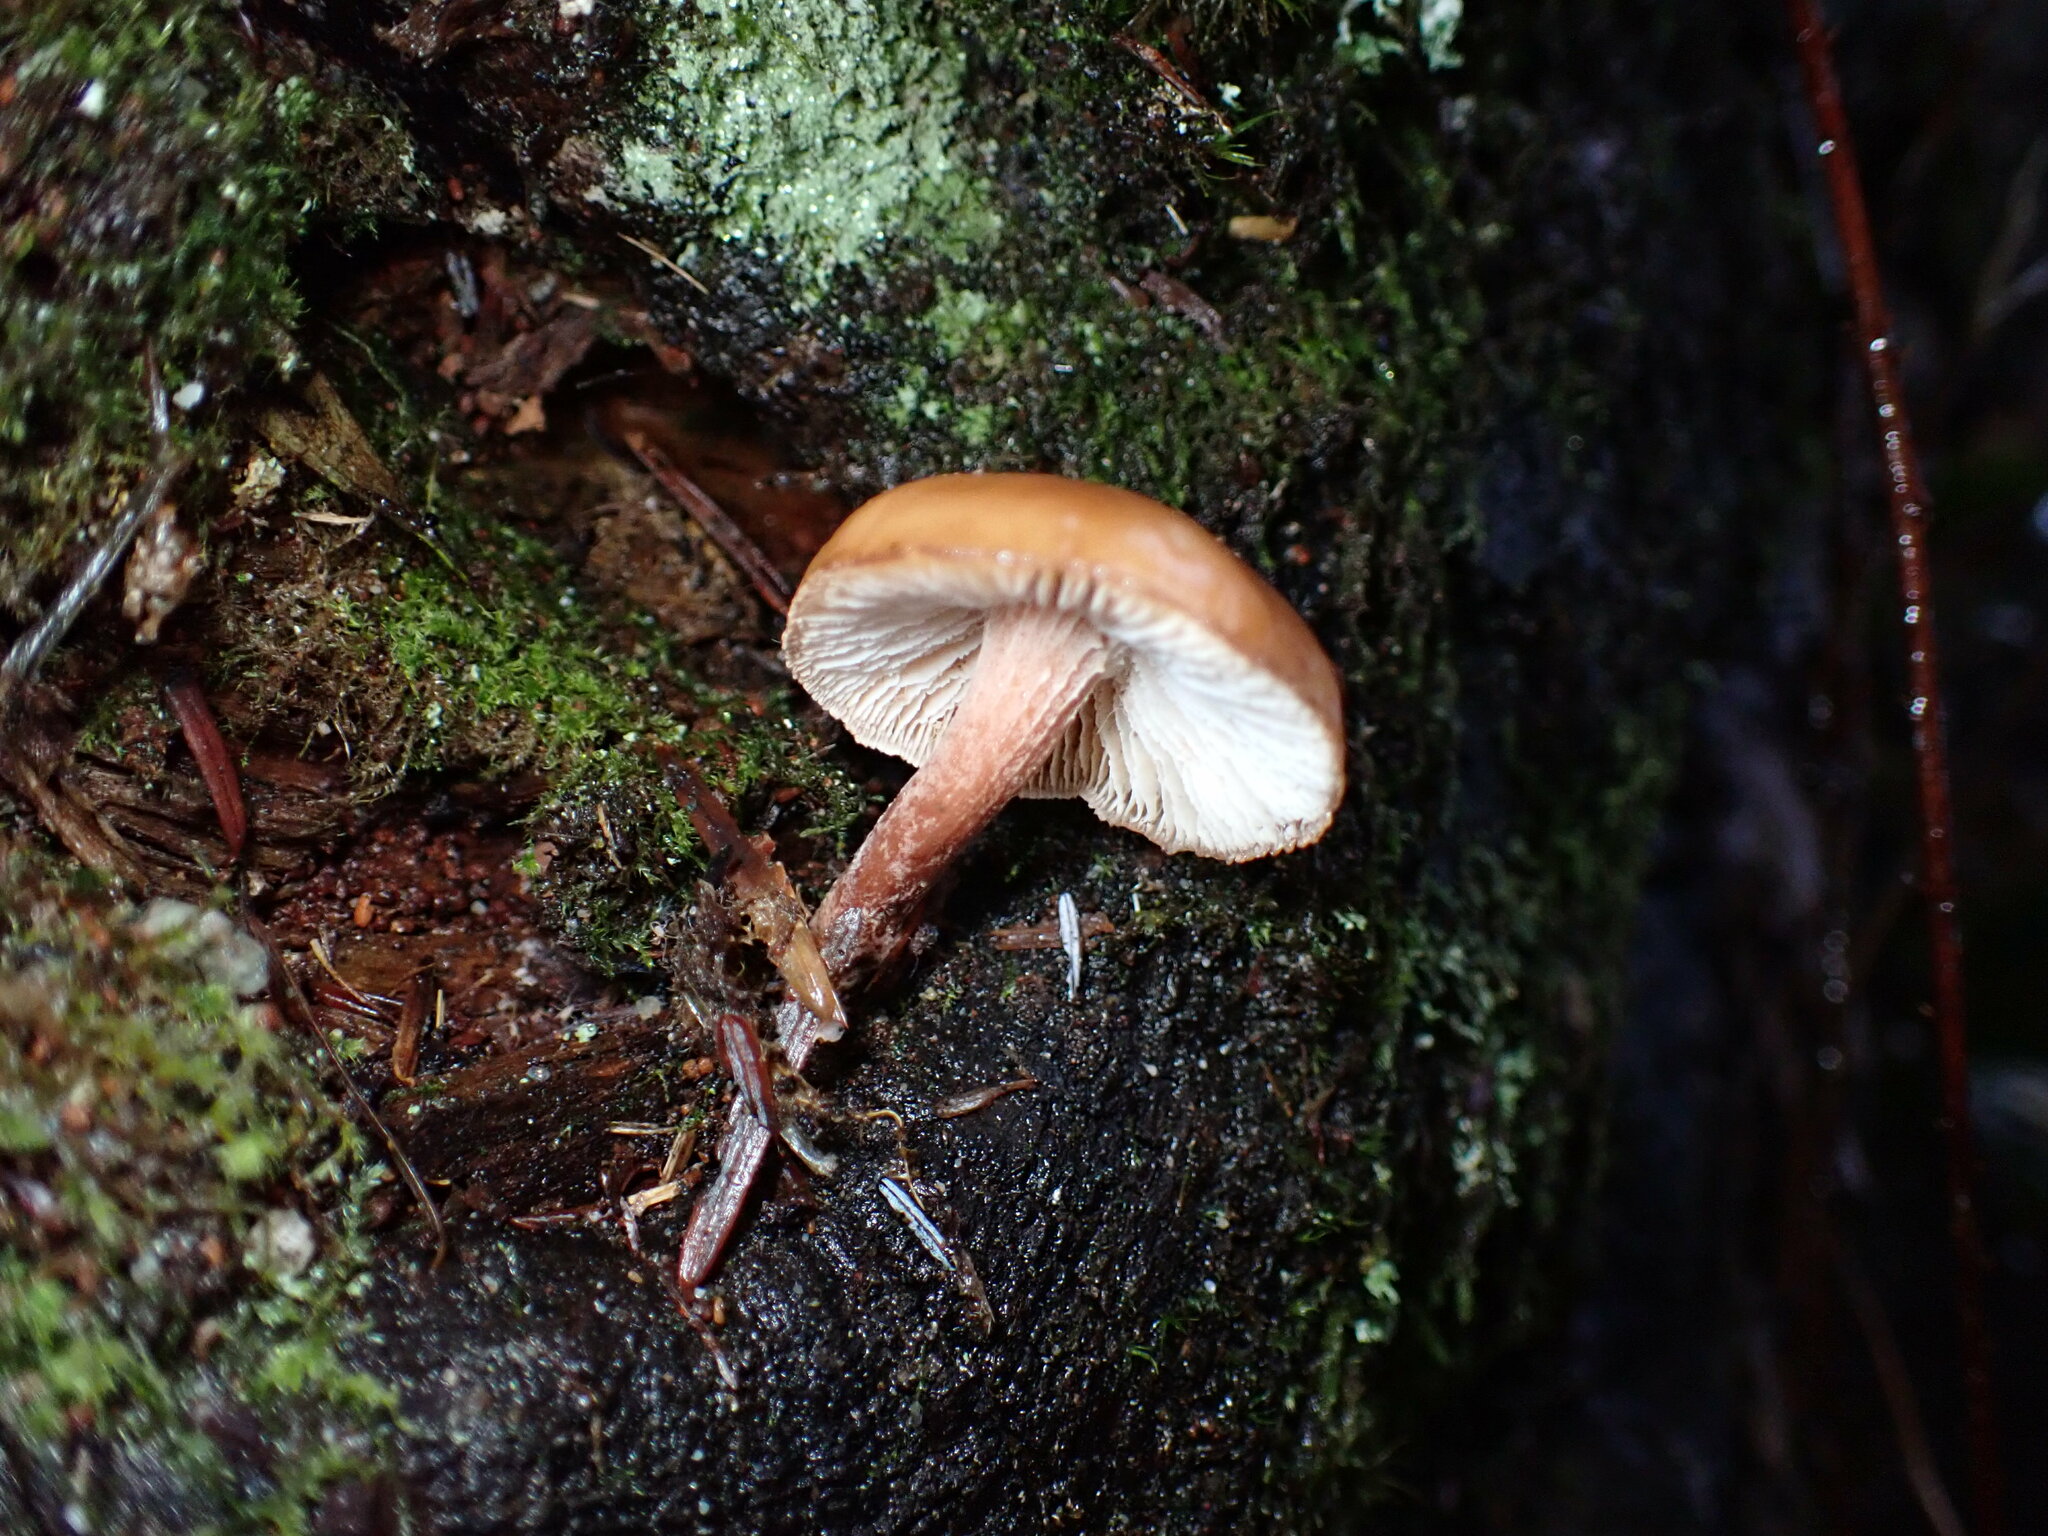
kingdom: Fungi
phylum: Basidiomycota
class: Agaricomycetes
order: Gloeophyllales
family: Gloeophyllaceae
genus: Neolentinus
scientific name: Neolentinus kauffmanii
